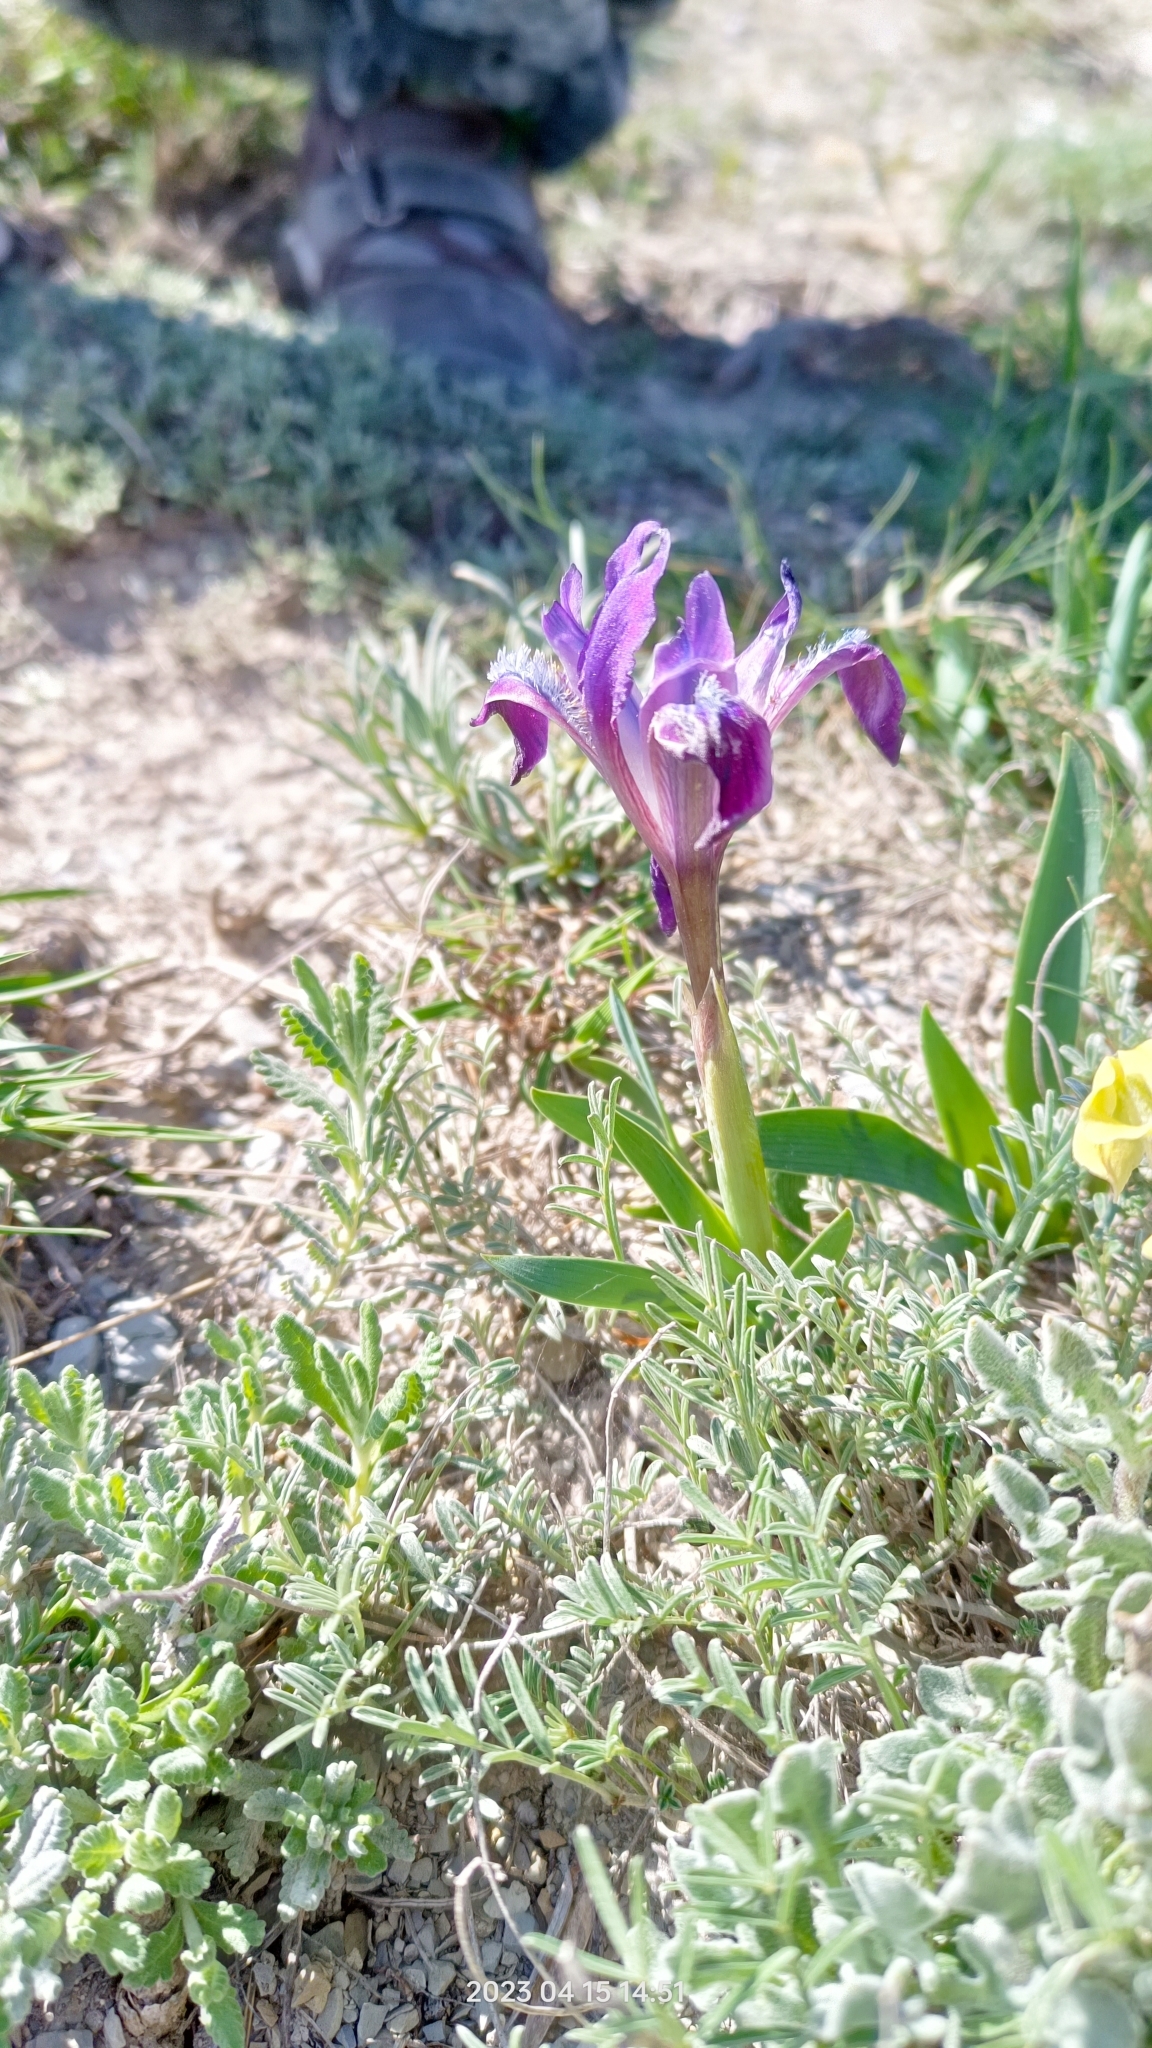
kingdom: Plantae
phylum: Tracheophyta
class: Liliopsida
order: Asparagales
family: Iridaceae
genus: Iris
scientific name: Iris pumila
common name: Dwarf iris
